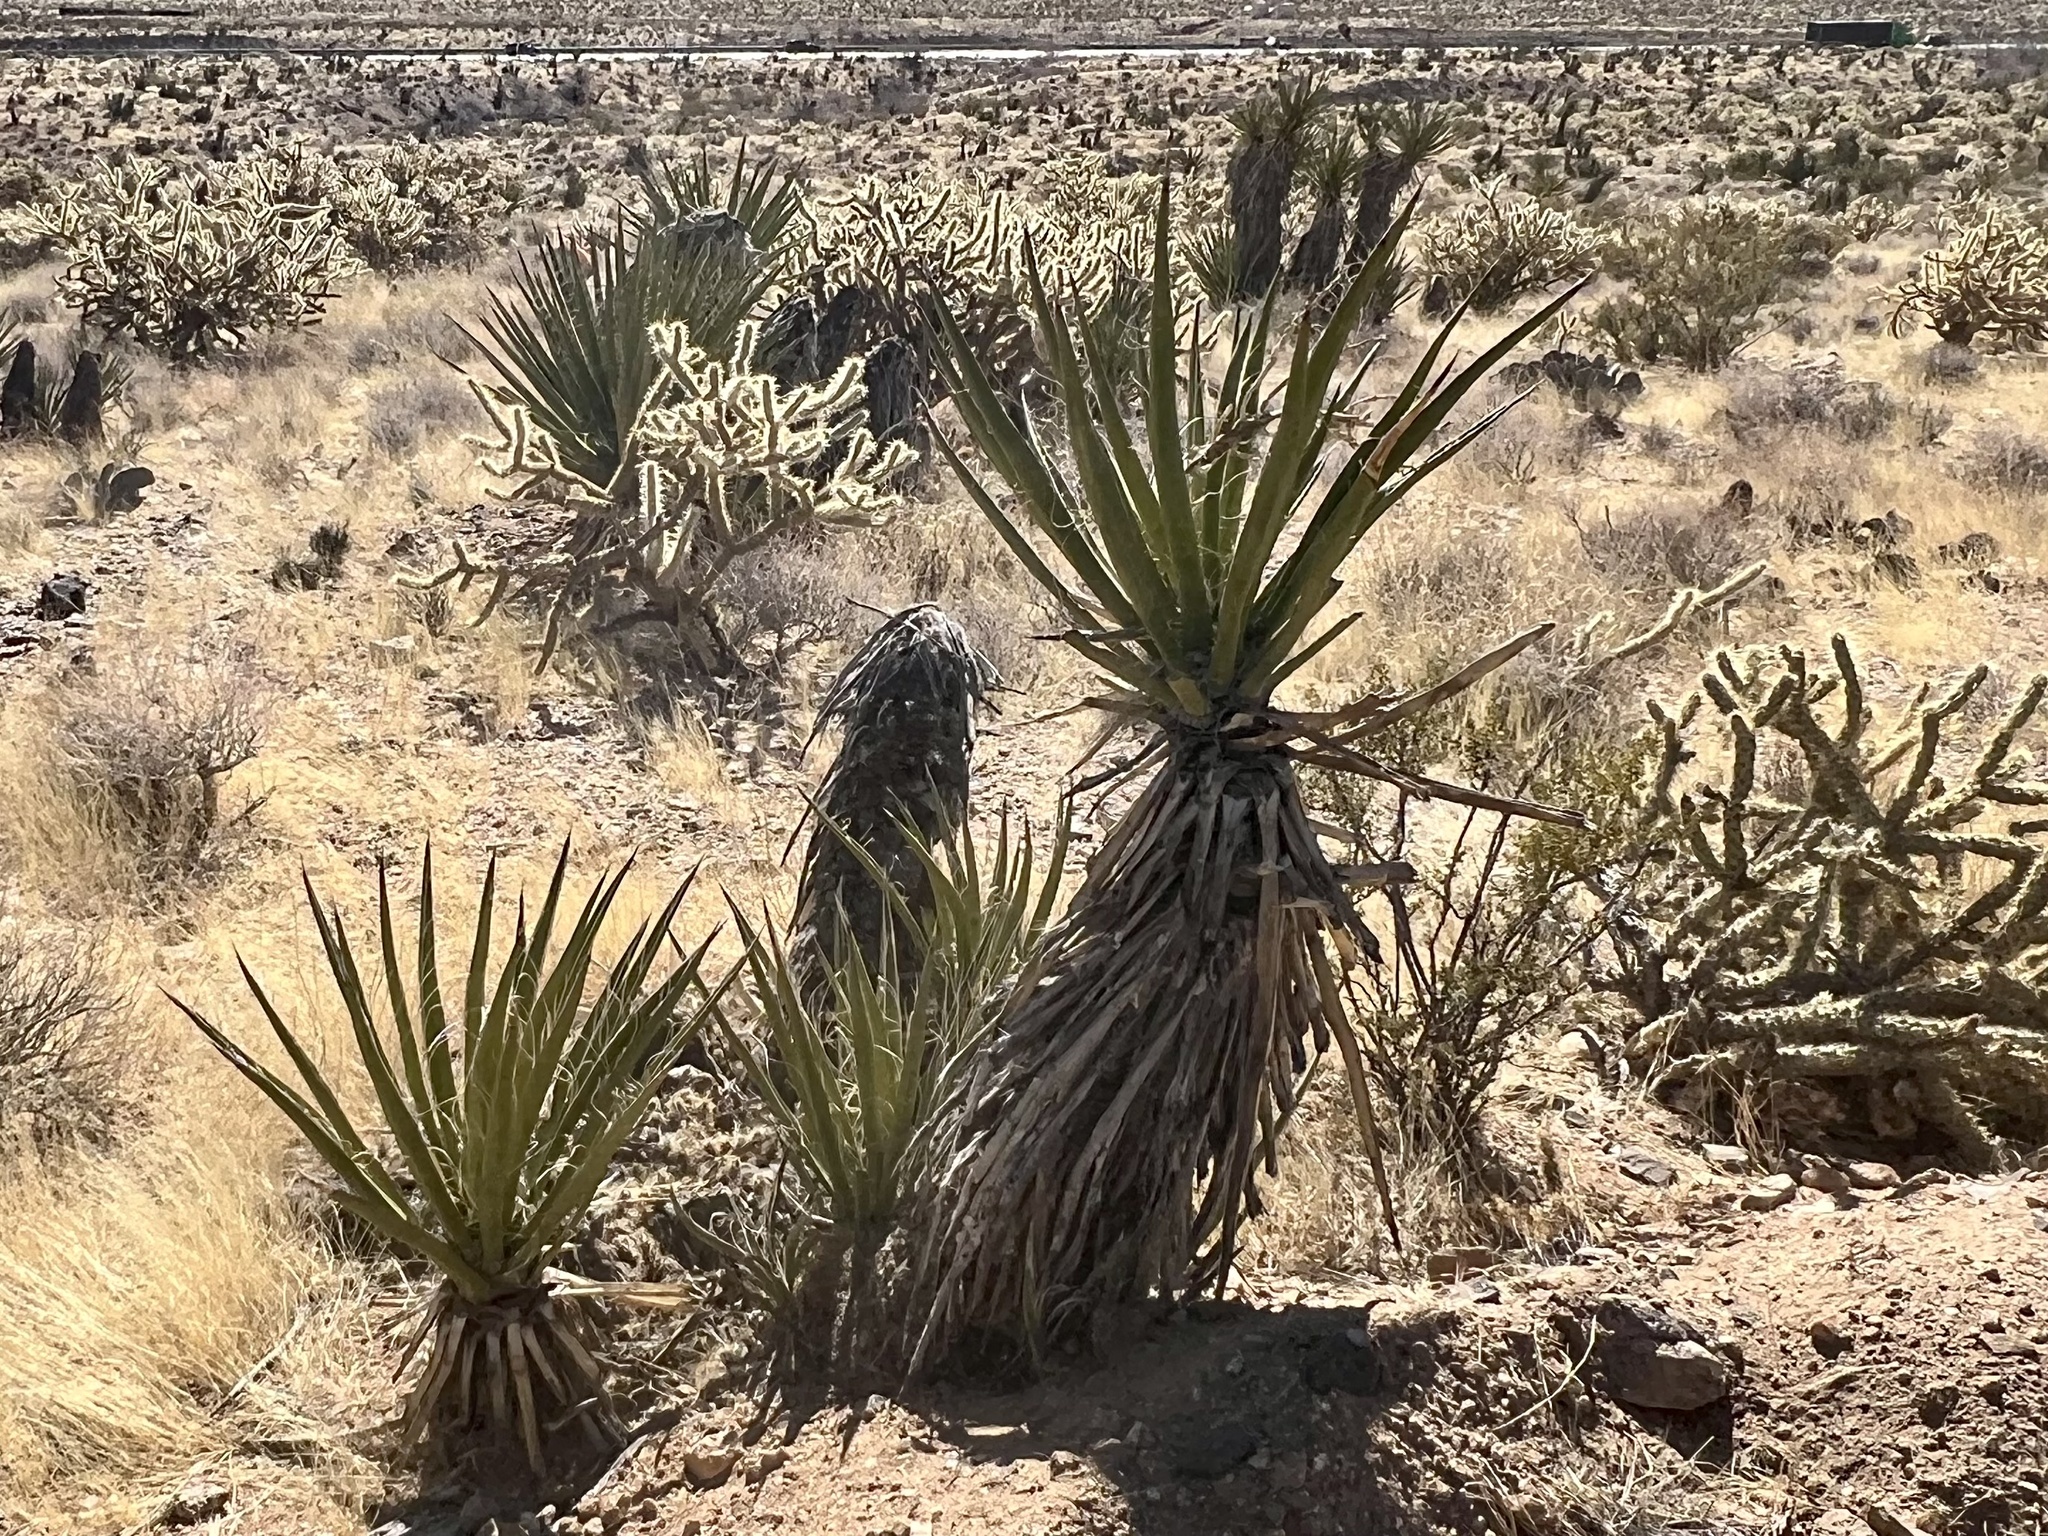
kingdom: Plantae
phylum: Tracheophyta
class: Liliopsida
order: Asparagales
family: Asparagaceae
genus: Yucca
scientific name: Yucca schidigera
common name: Mojave yucca
